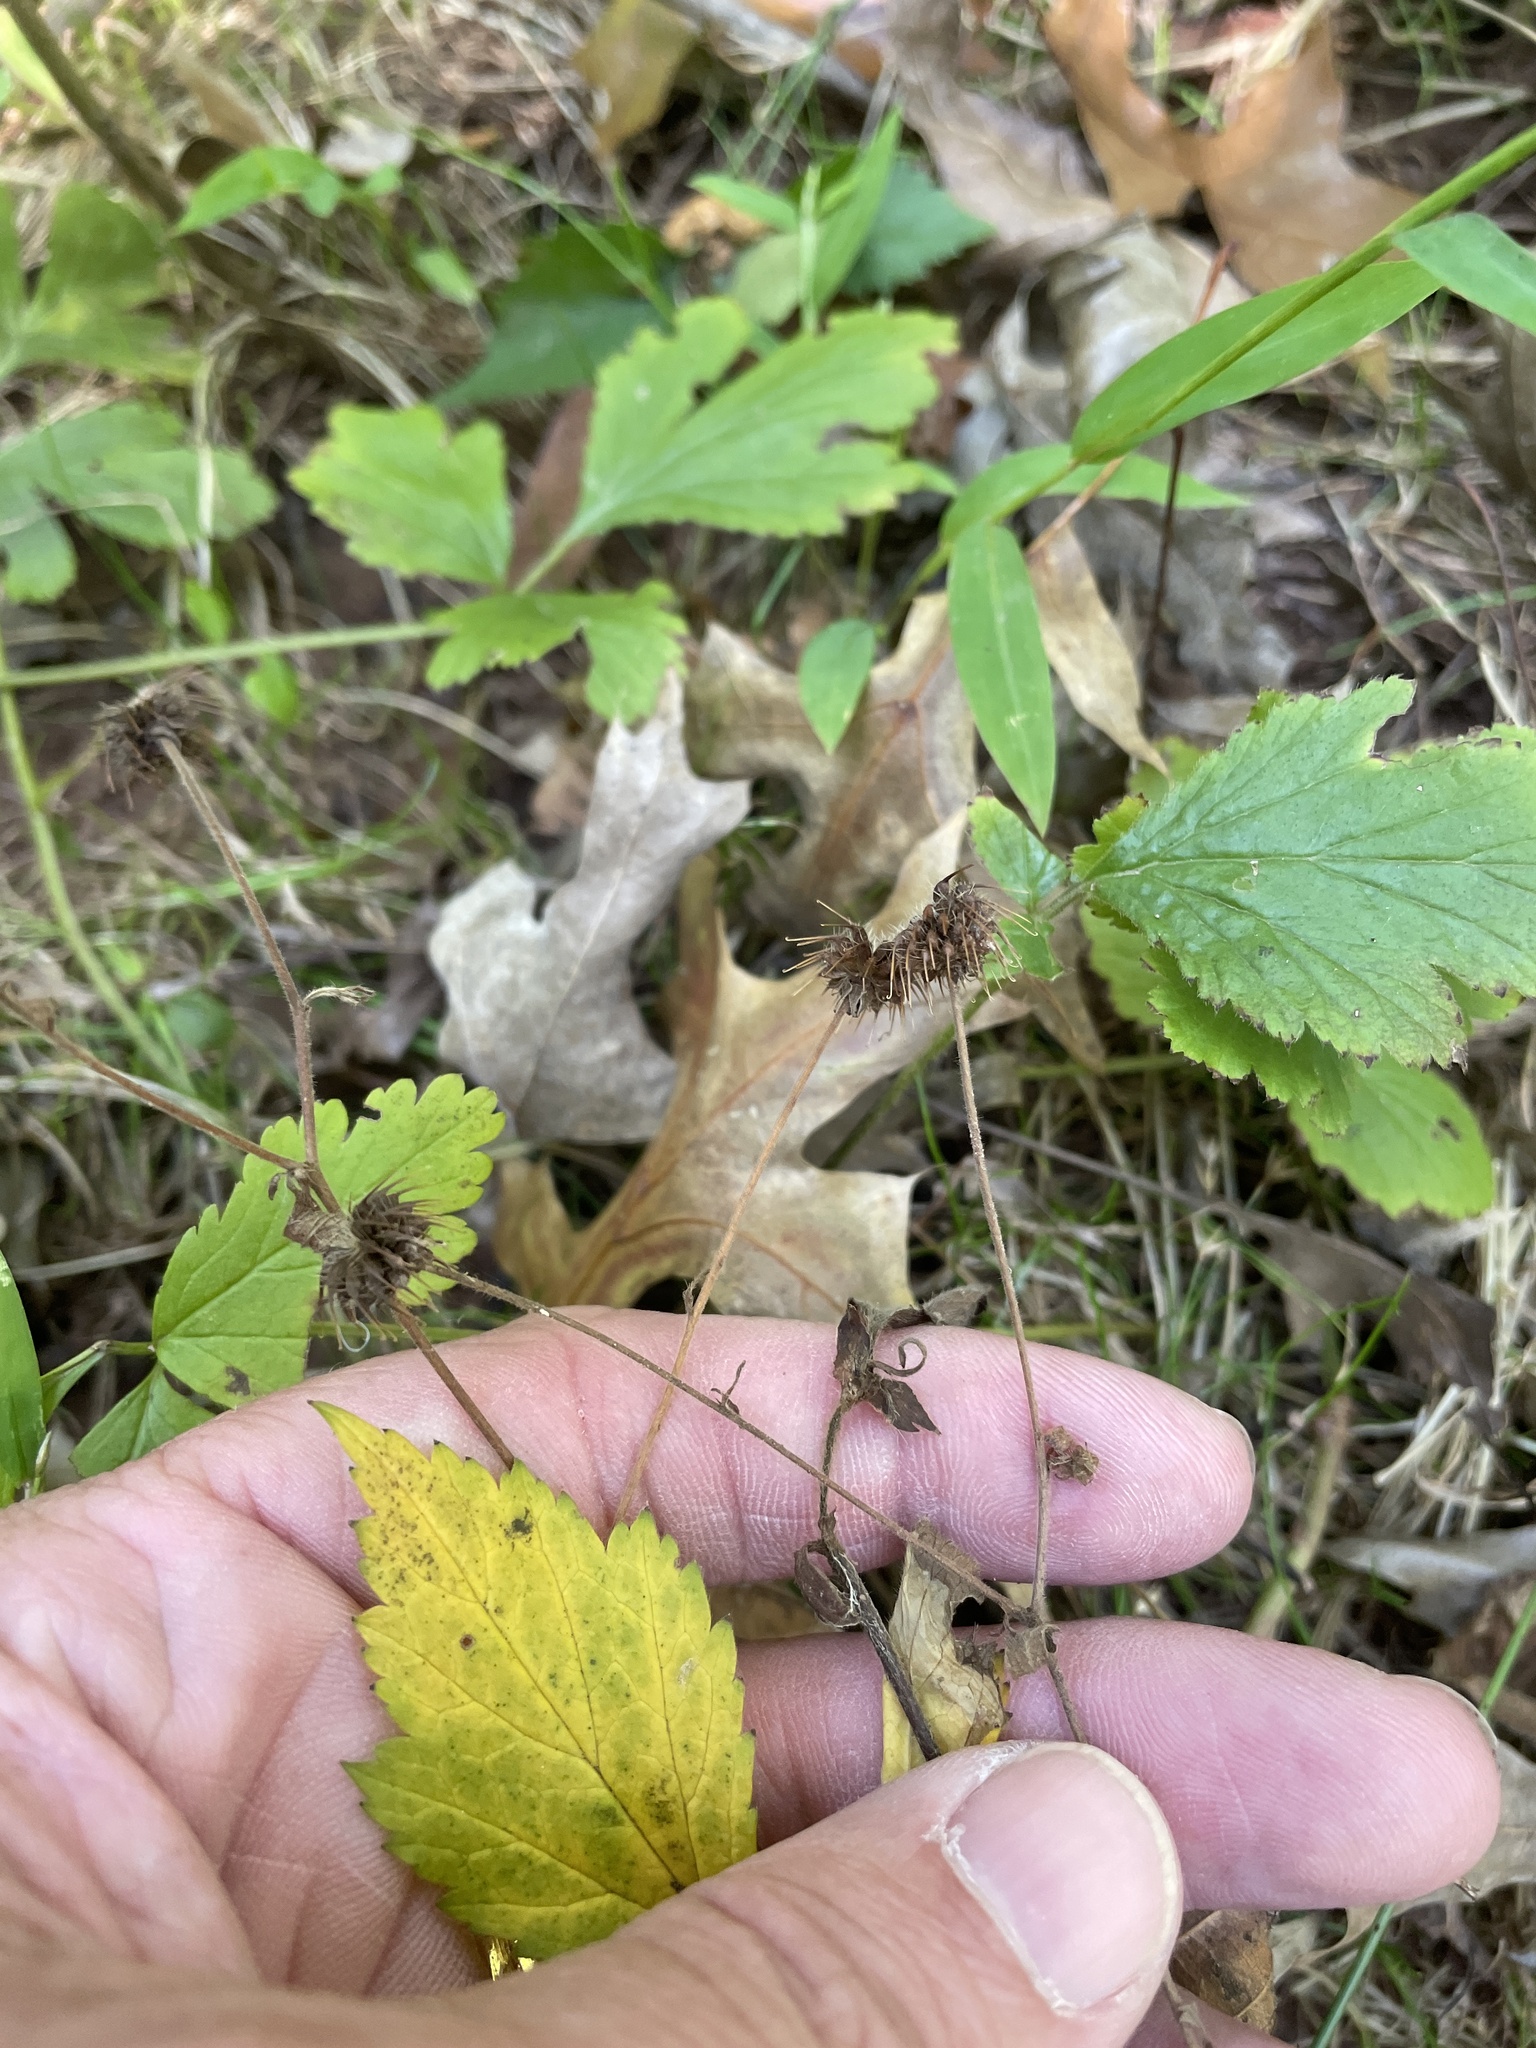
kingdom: Plantae
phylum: Tracheophyta
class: Magnoliopsida
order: Rosales
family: Rosaceae
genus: Geum
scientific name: Geum canadense
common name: White avens
